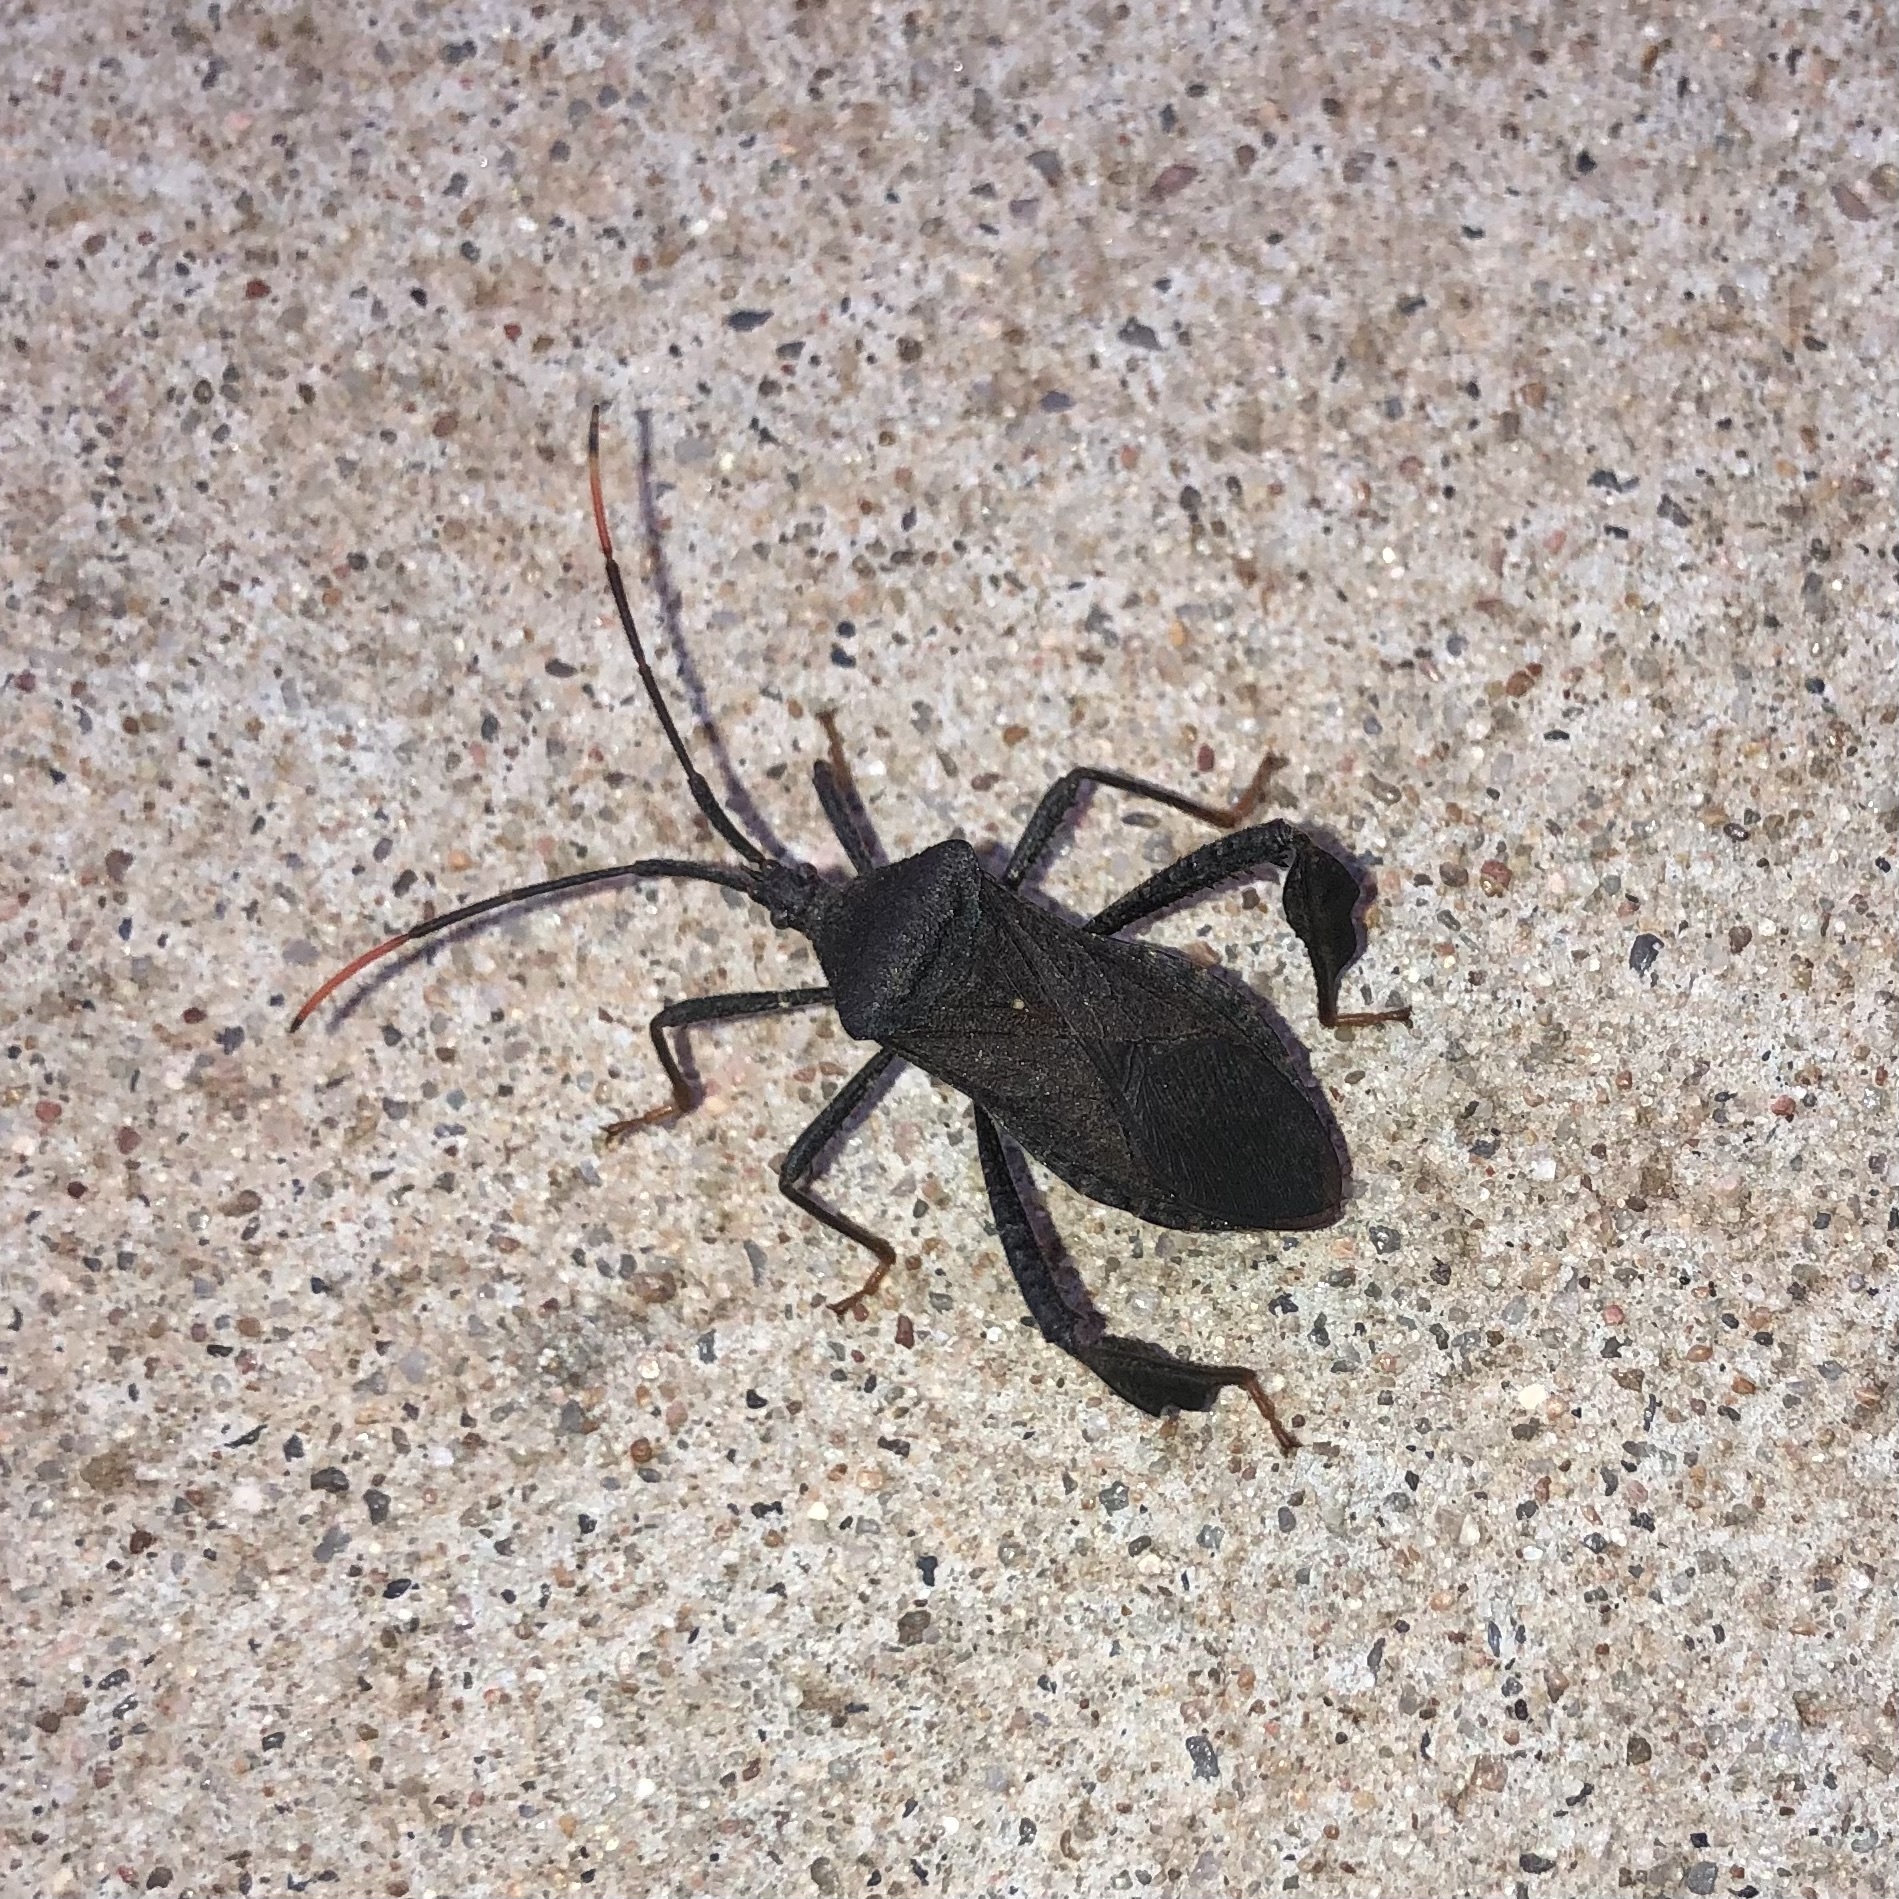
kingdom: Animalia
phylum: Arthropoda
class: Insecta
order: Hemiptera
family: Coreidae
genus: Acanthocephala
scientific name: Acanthocephala terminalis
